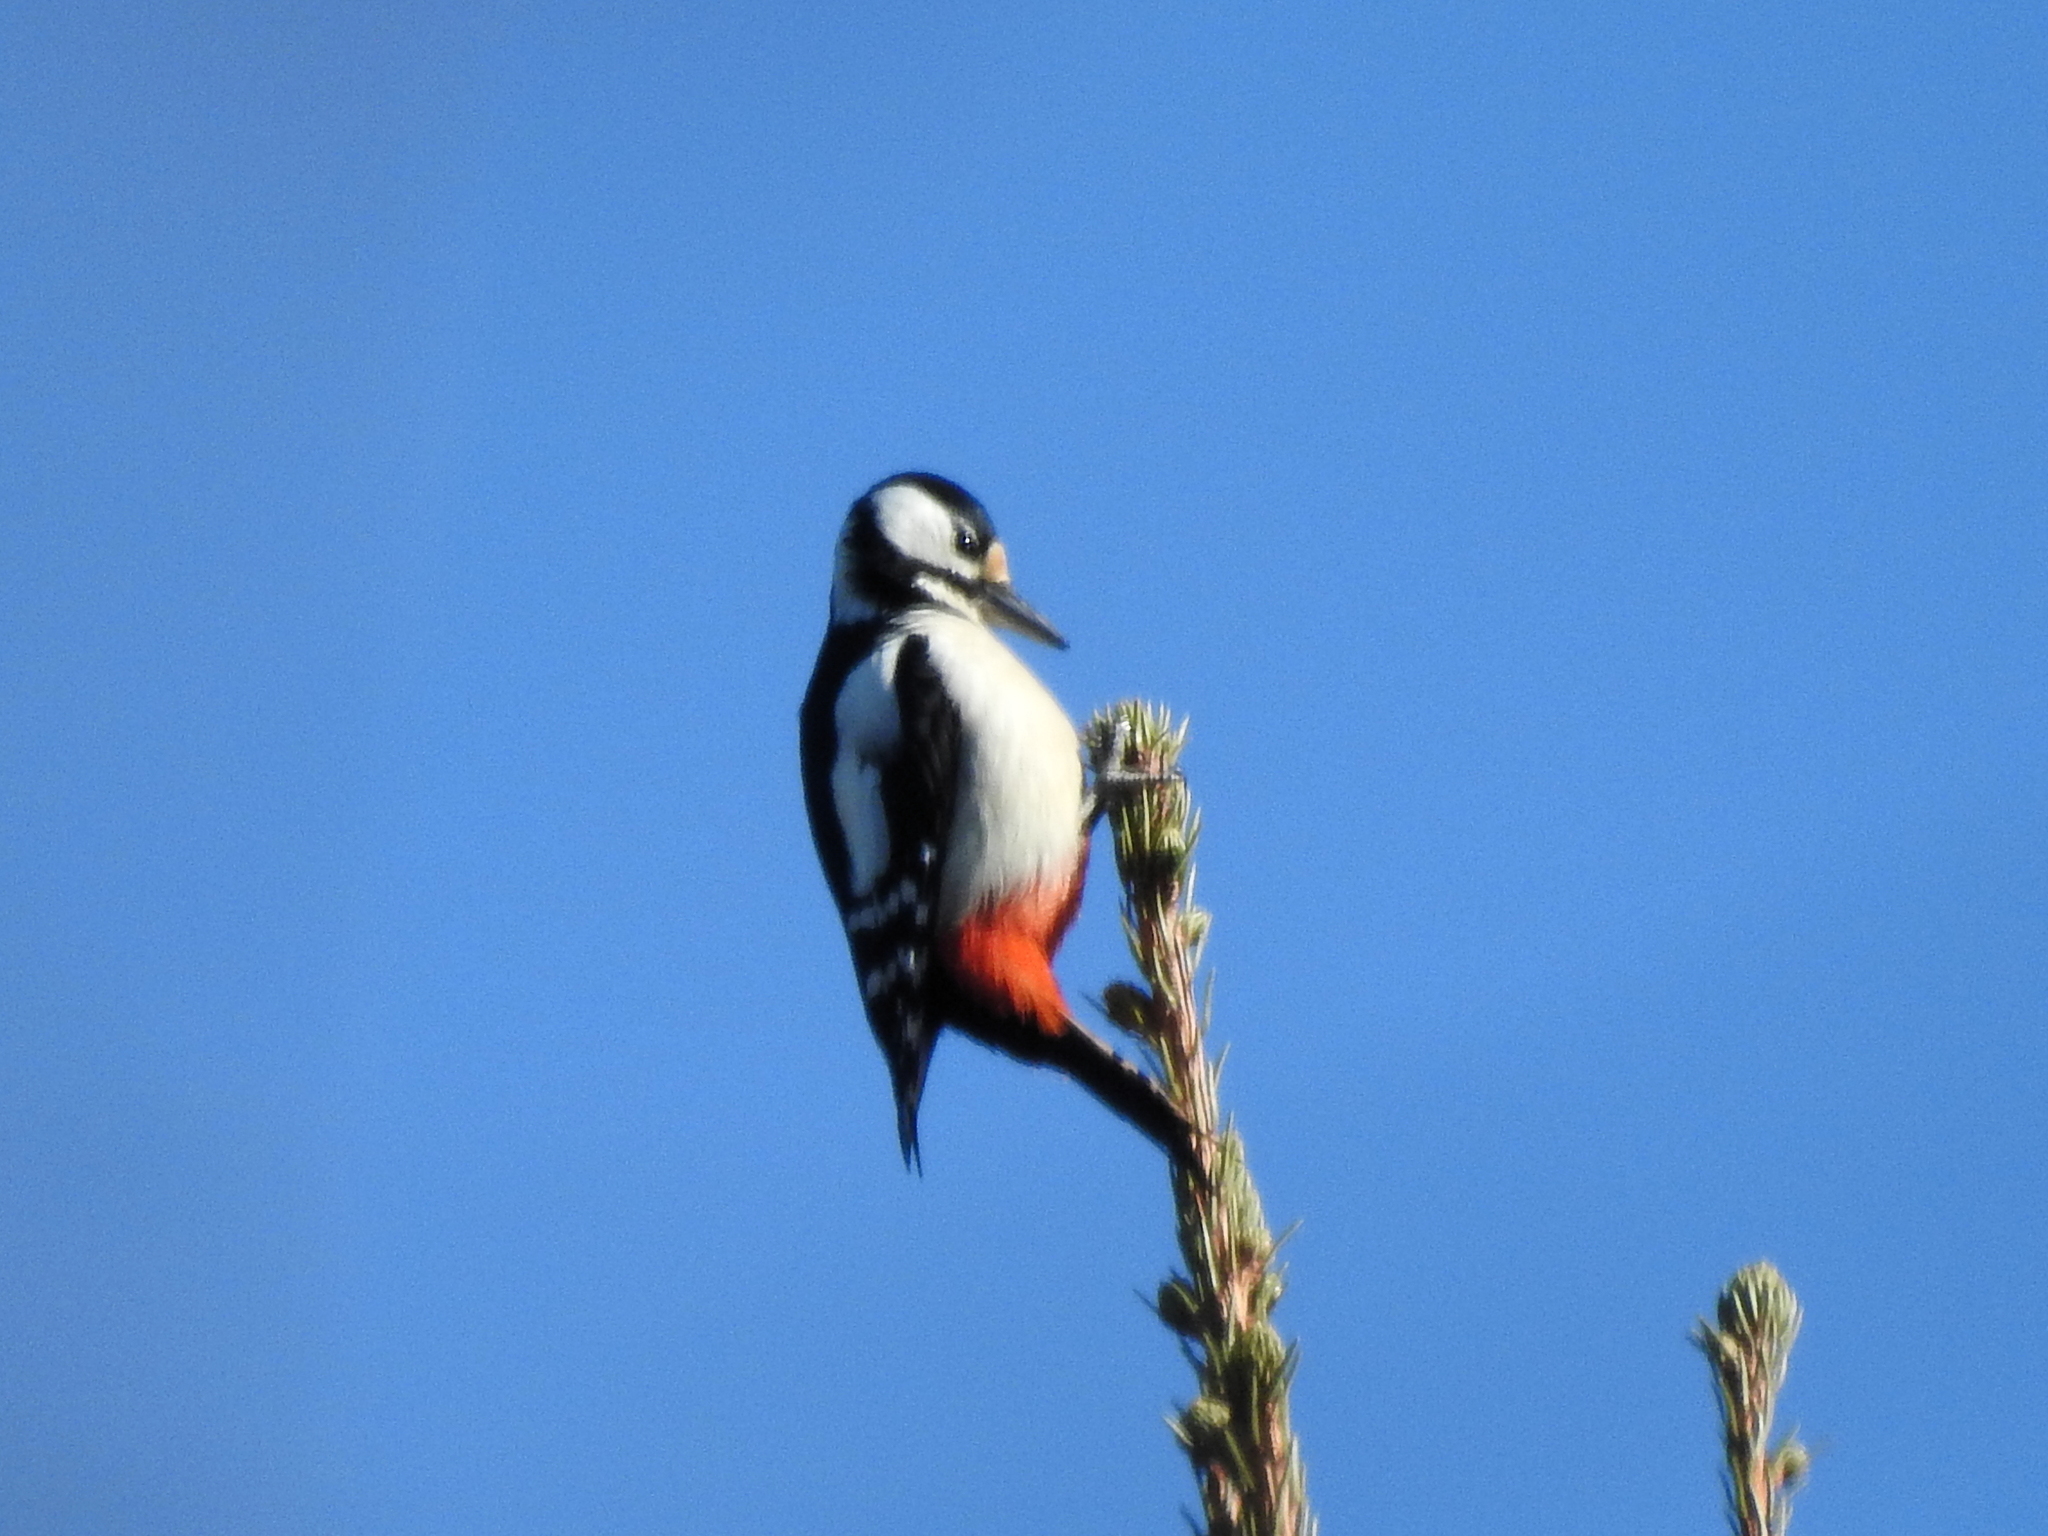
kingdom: Animalia
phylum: Chordata
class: Aves
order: Piciformes
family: Picidae
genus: Dendrocopos
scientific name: Dendrocopos major
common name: Great spotted woodpecker
